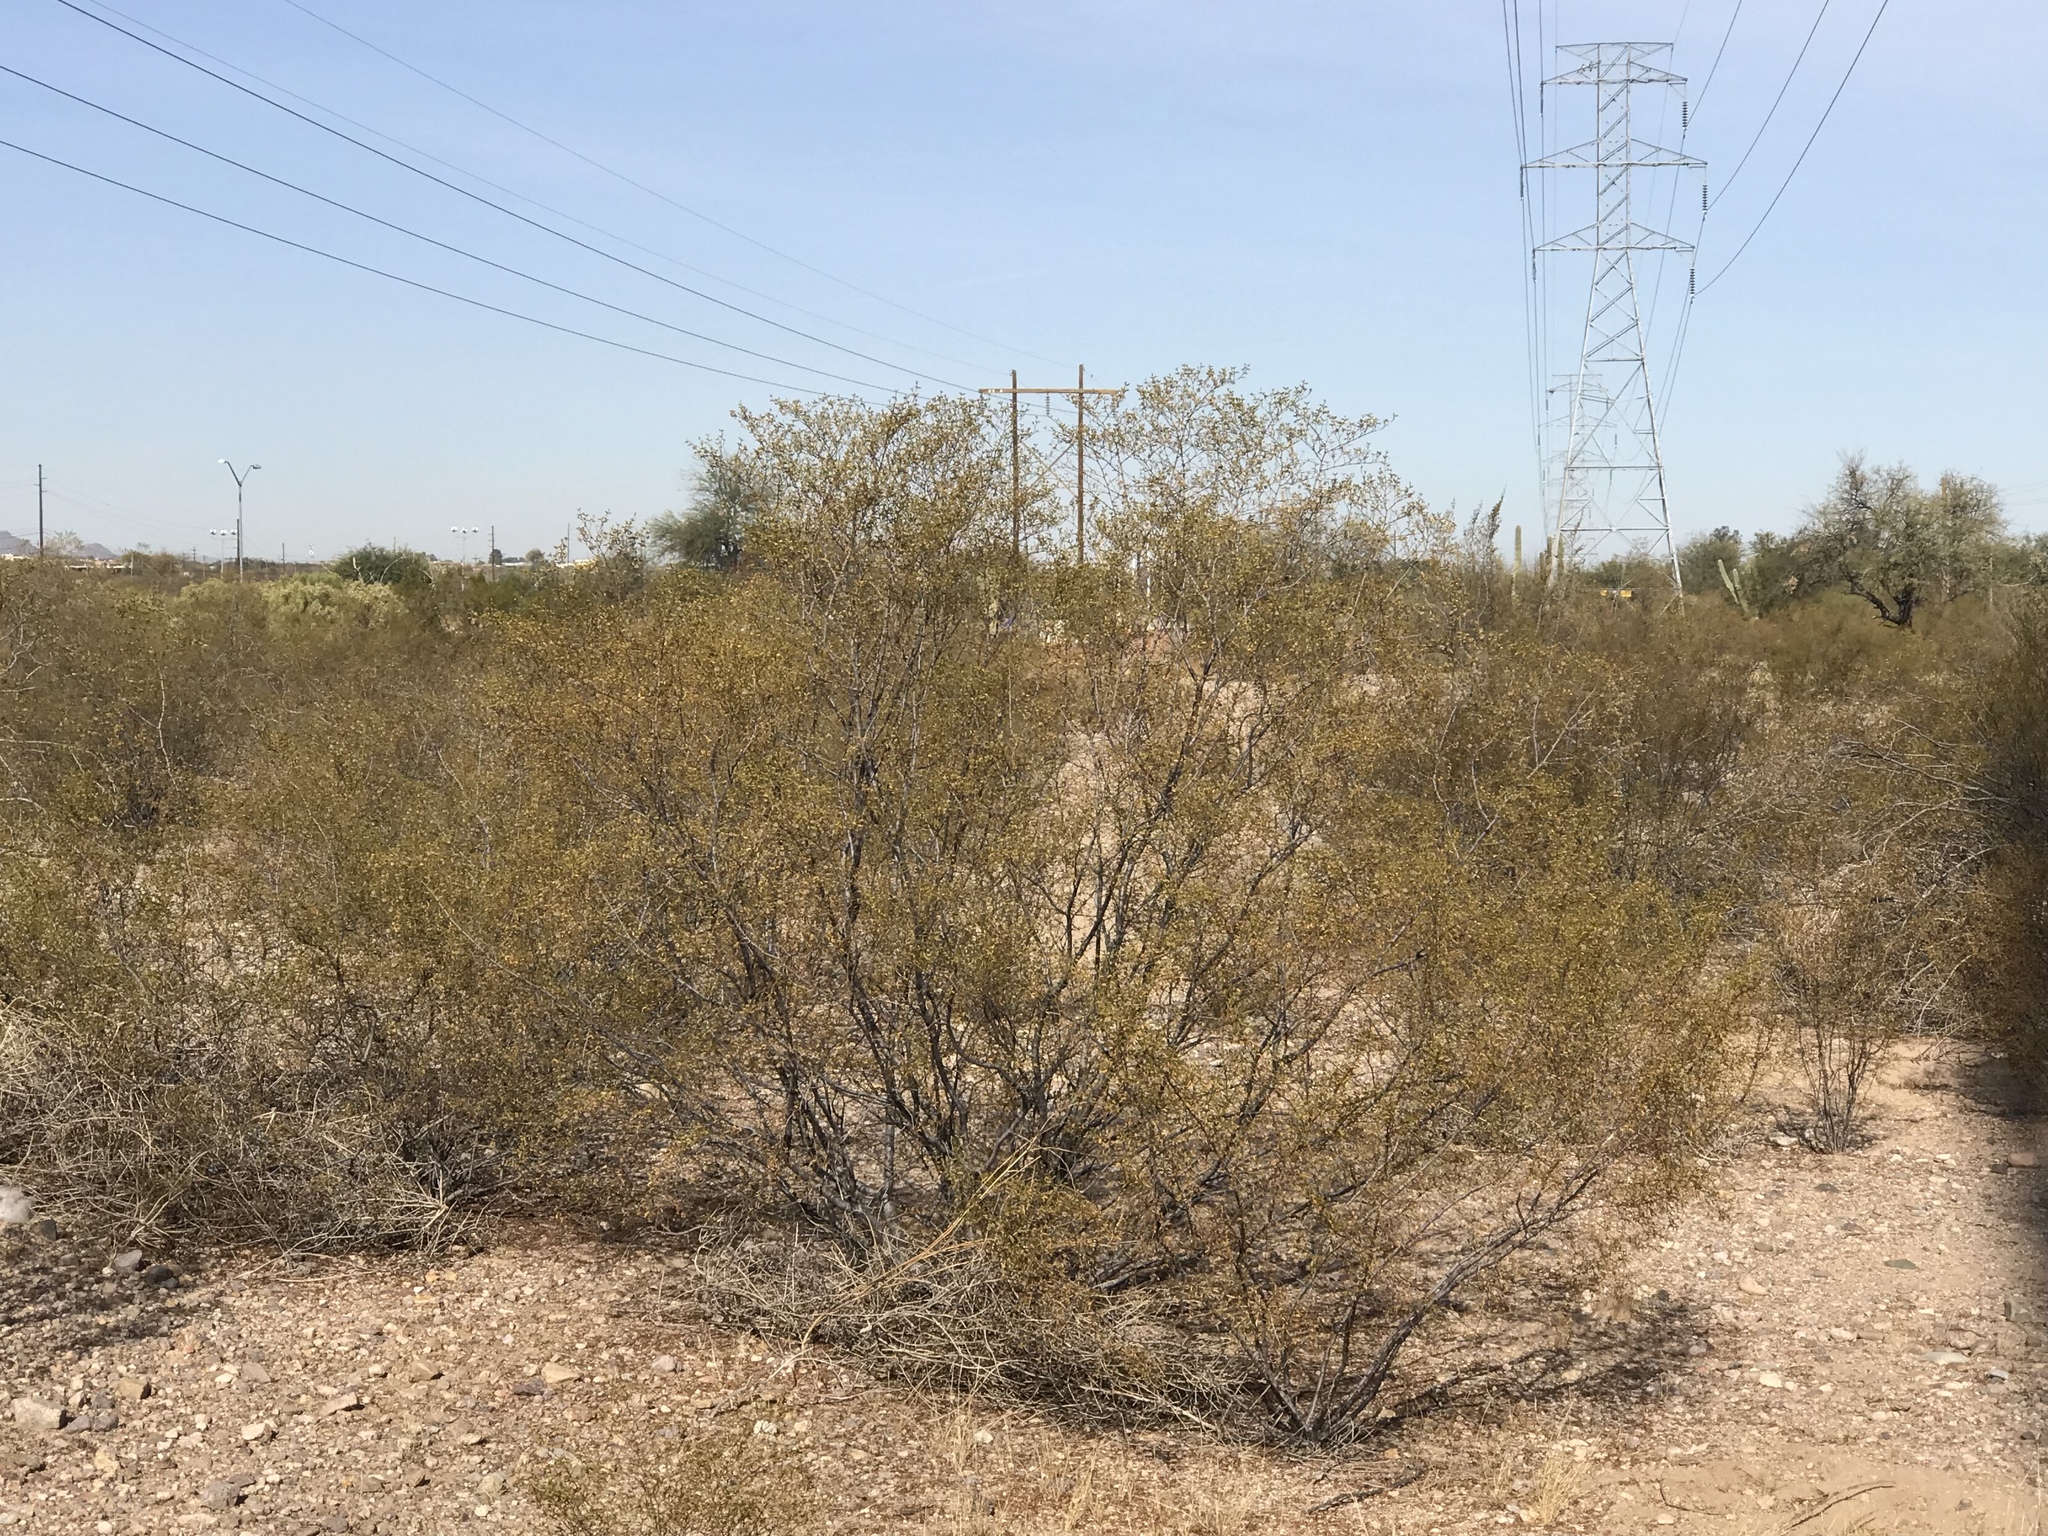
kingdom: Plantae
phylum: Tracheophyta
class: Magnoliopsida
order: Zygophyllales
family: Zygophyllaceae
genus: Larrea
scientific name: Larrea tridentata
